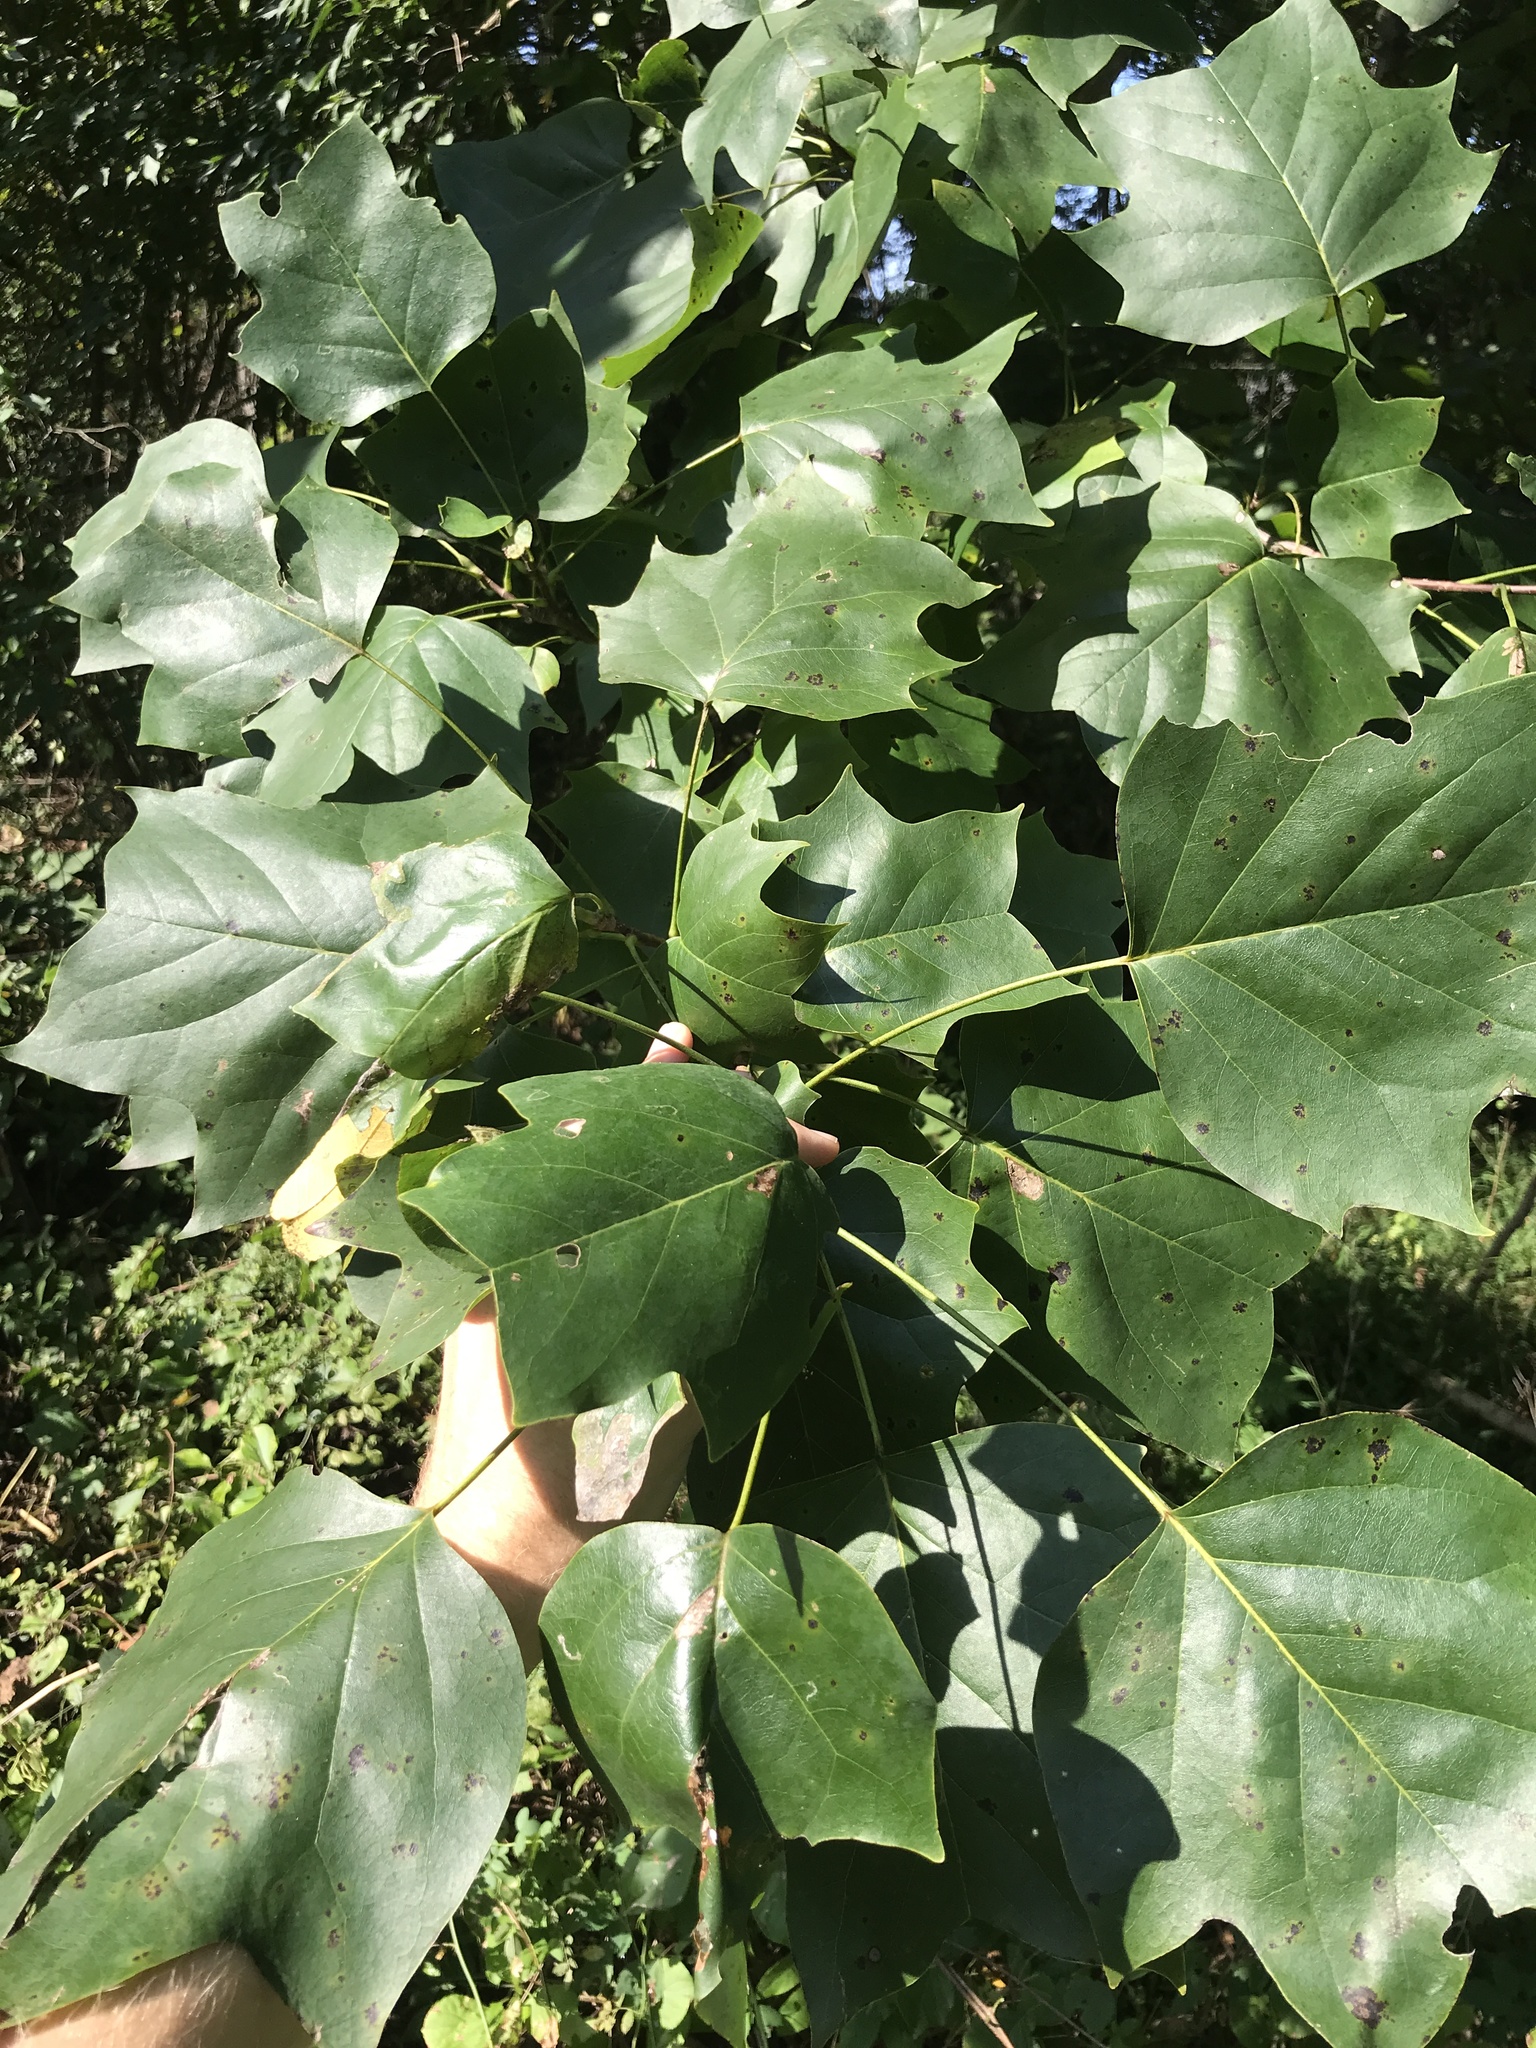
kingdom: Plantae
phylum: Tracheophyta
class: Magnoliopsida
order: Magnoliales
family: Magnoliaceae
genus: Liriodendron
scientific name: Liriodendron tulipifera
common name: Tulip tree
